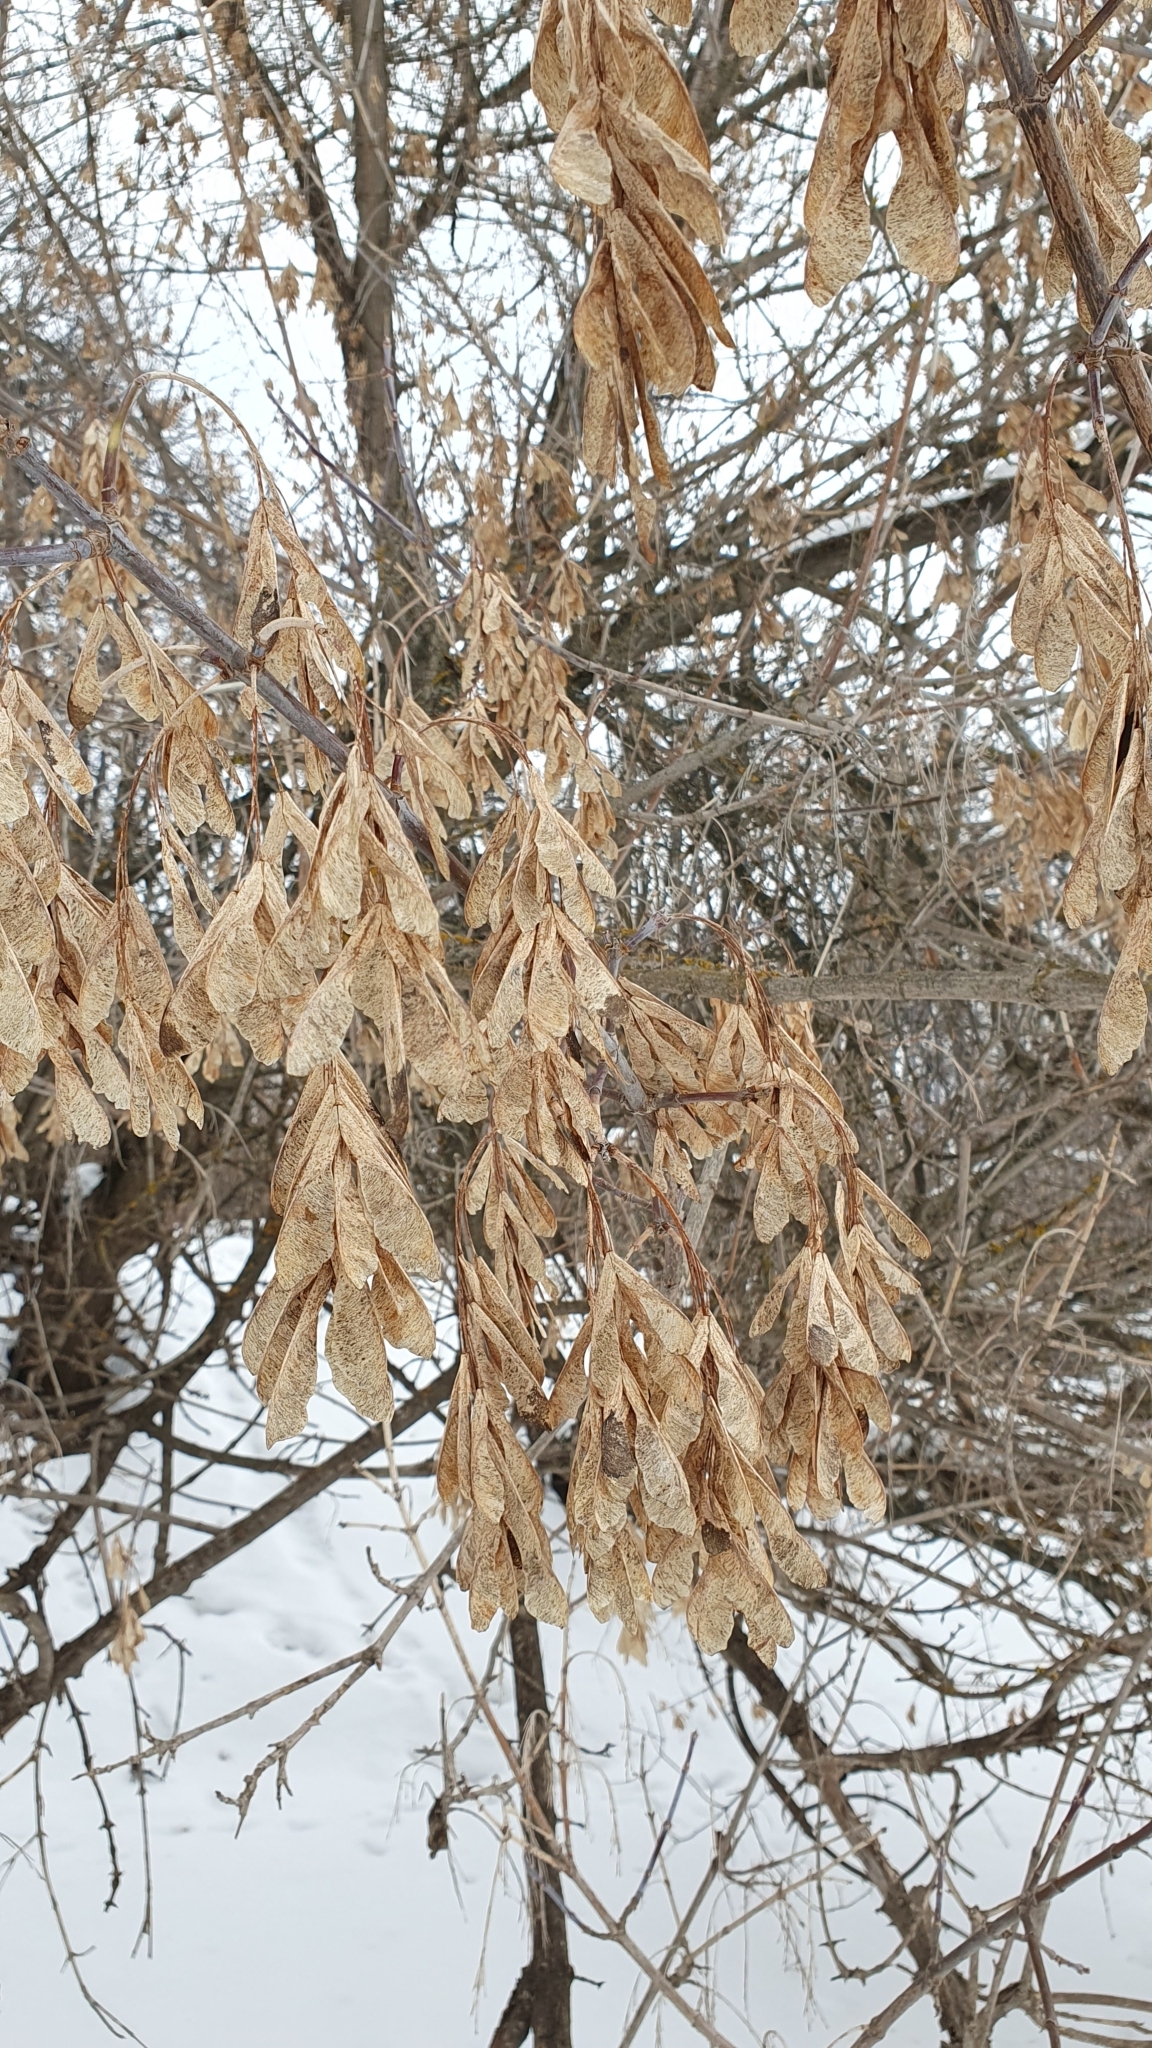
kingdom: Plantae
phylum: Tracheophyta
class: Magnoliopsida
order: Sapindales
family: Sapindaceae
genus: Acer
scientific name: Acer negundo
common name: Ashleaf maple
